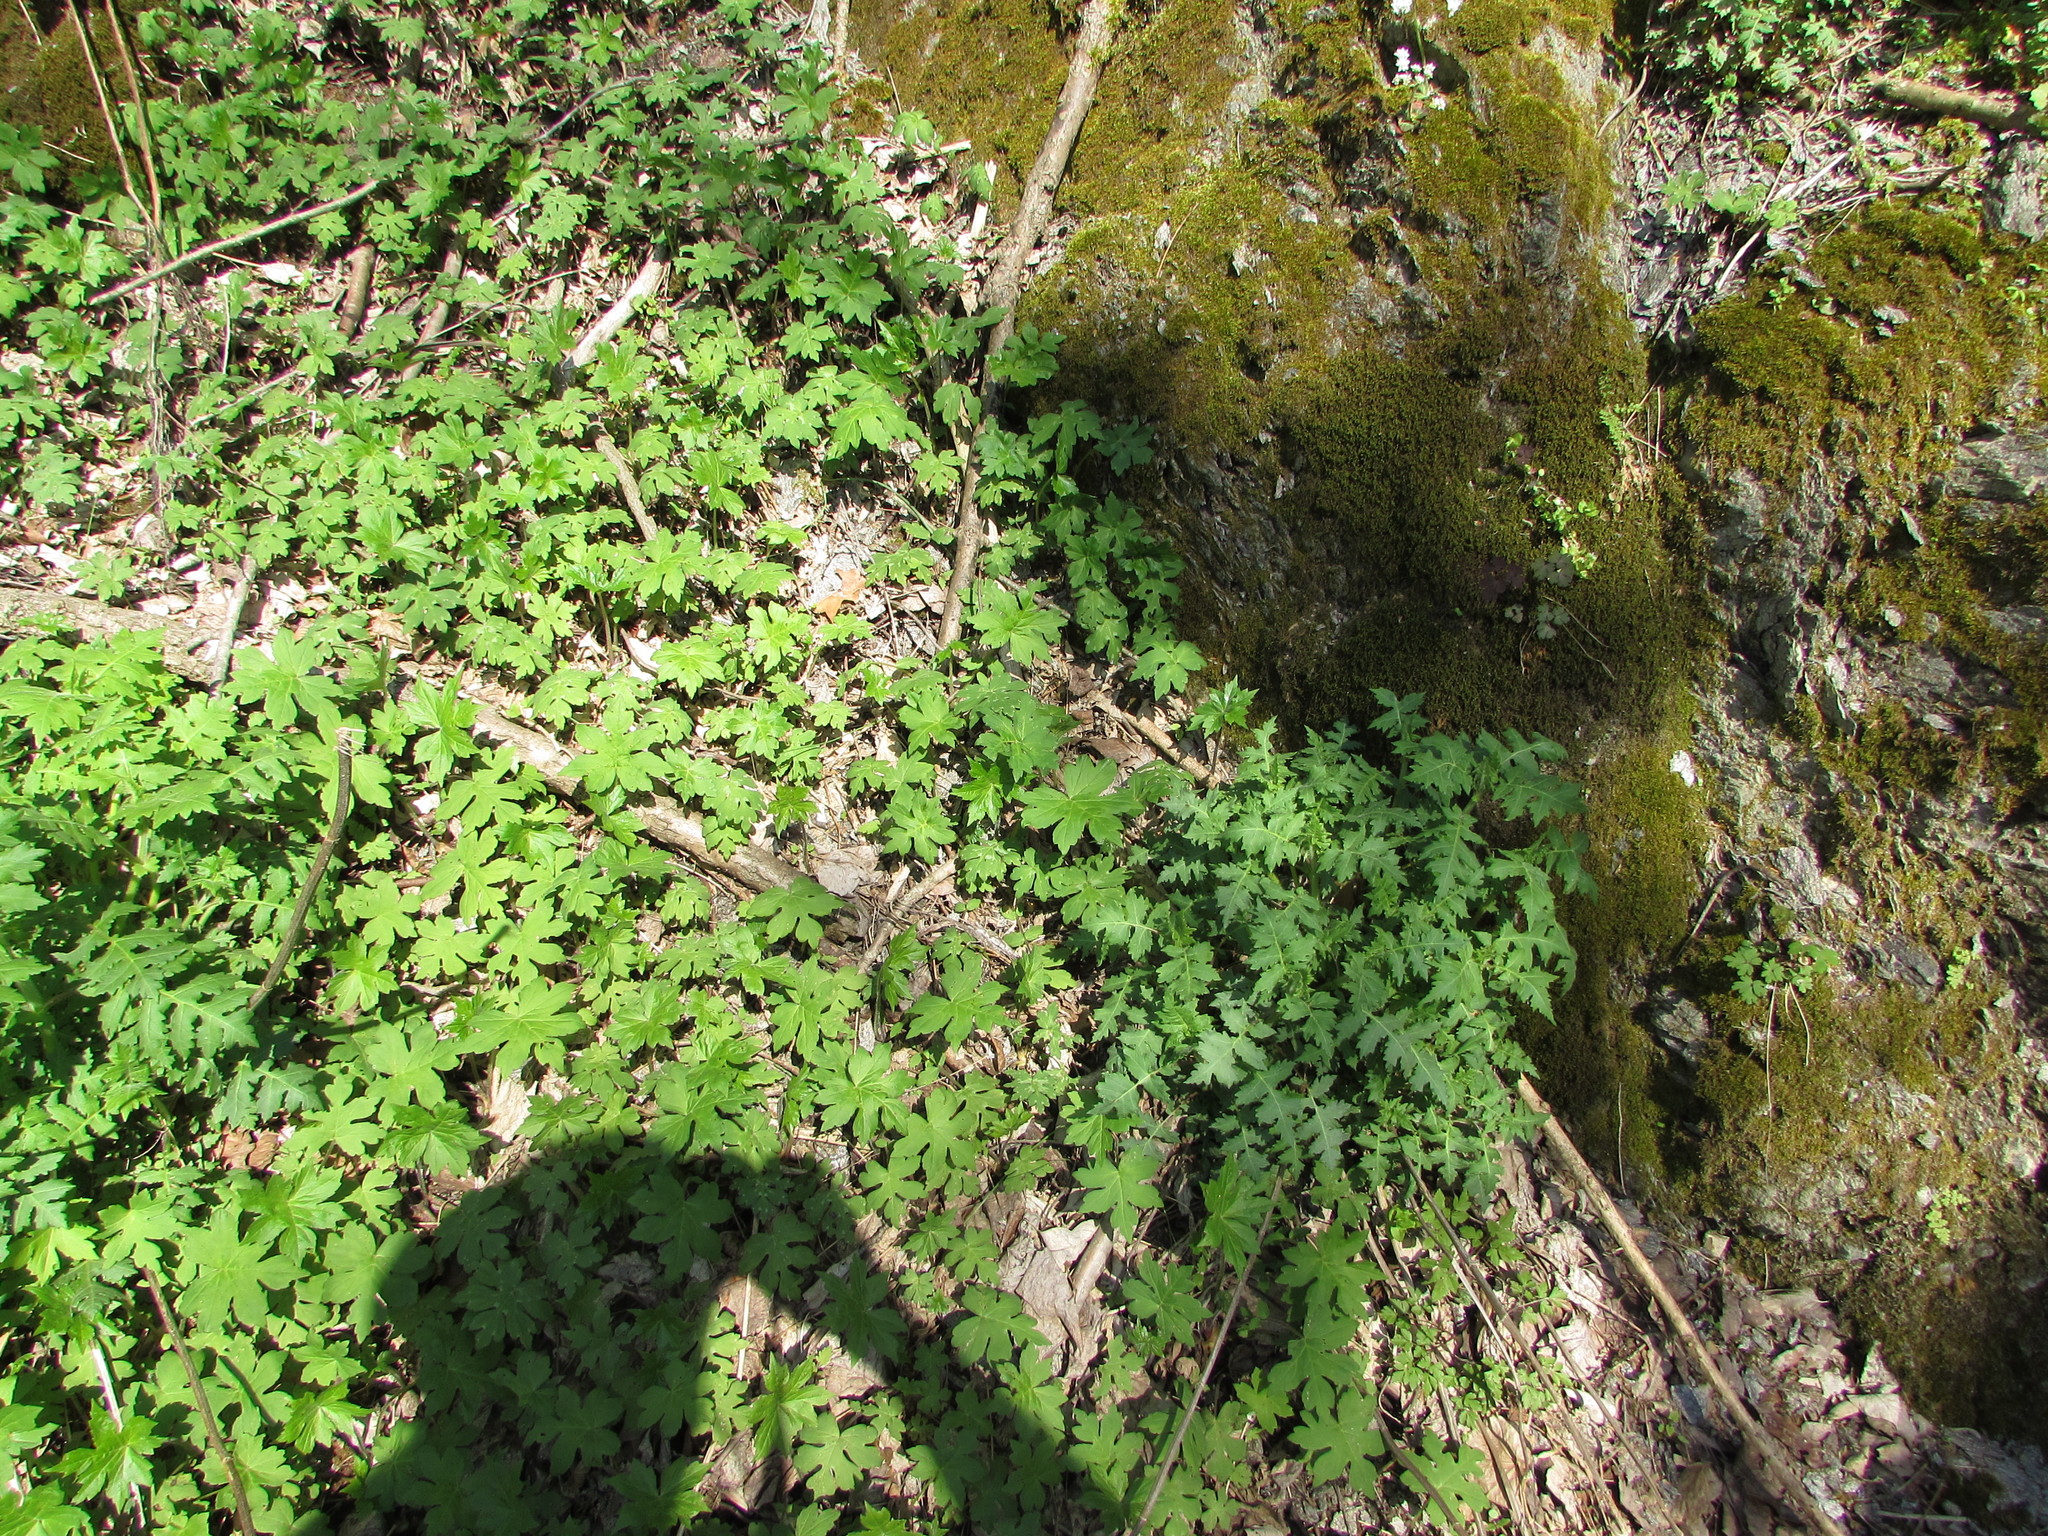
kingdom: Plantae
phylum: Tracheophyta
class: Magnoliopsida
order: Boraginales
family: Hydrophyllaceae
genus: Hydrophyllum
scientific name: Hydrophyllum canadense
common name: Canada waterleaf
